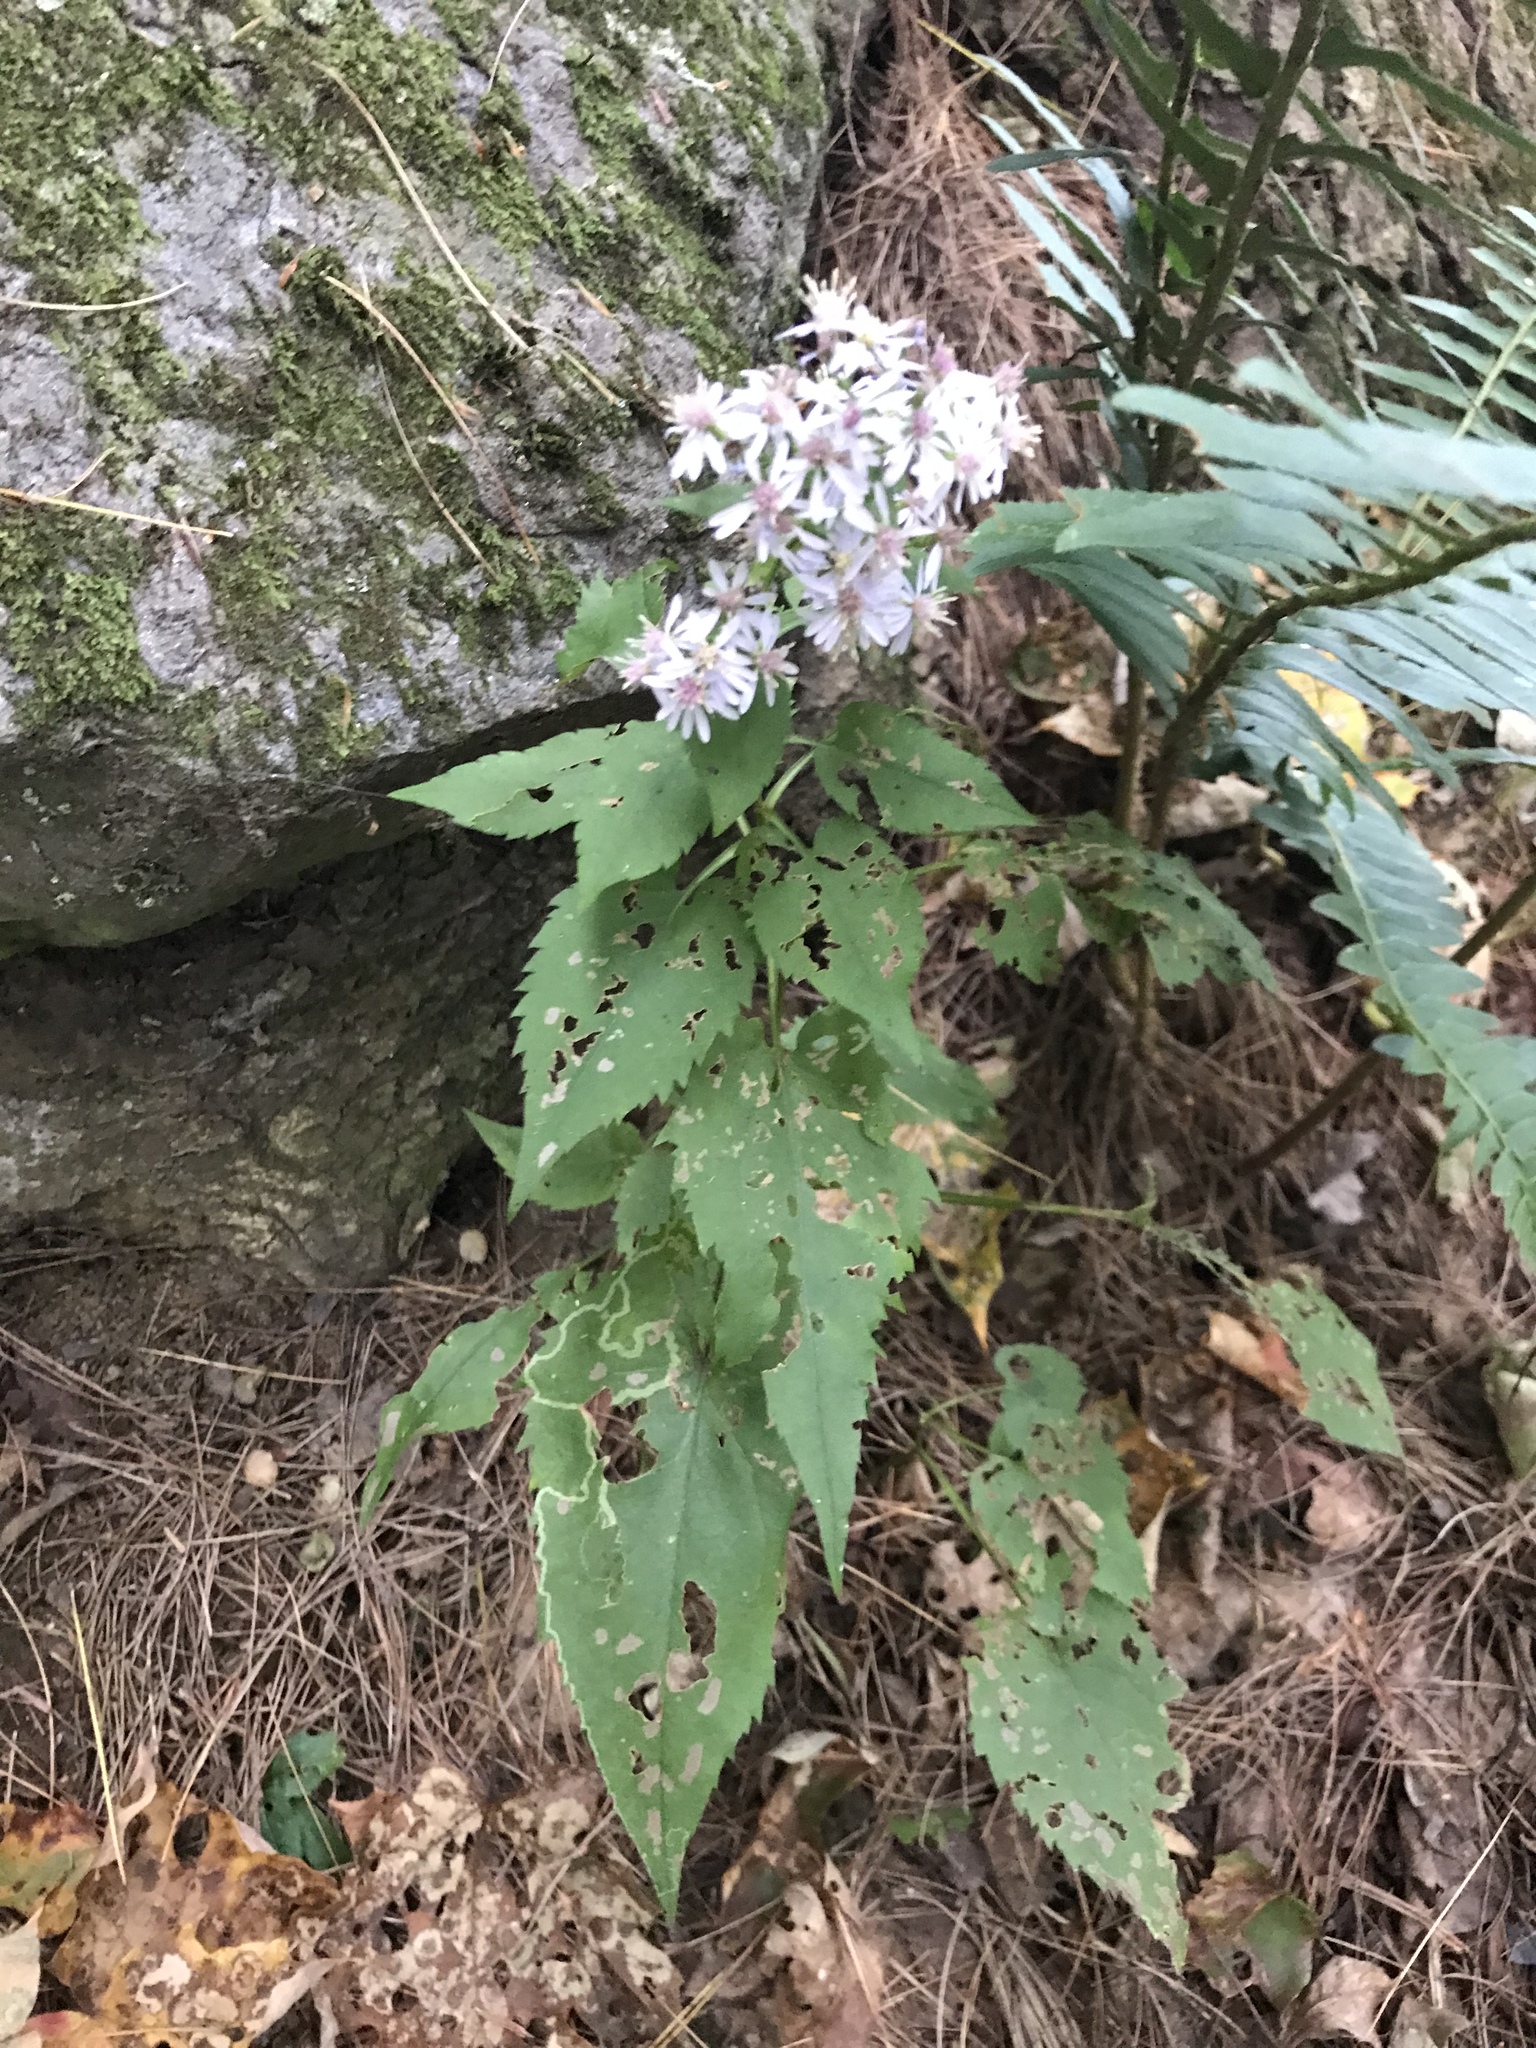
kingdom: Plantae
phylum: Tracheophyta
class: Magnoliopsida
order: Asterales
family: Asteraceae
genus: Symphyotrichum
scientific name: Symphyotrichum cordifolium
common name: Beeweed
